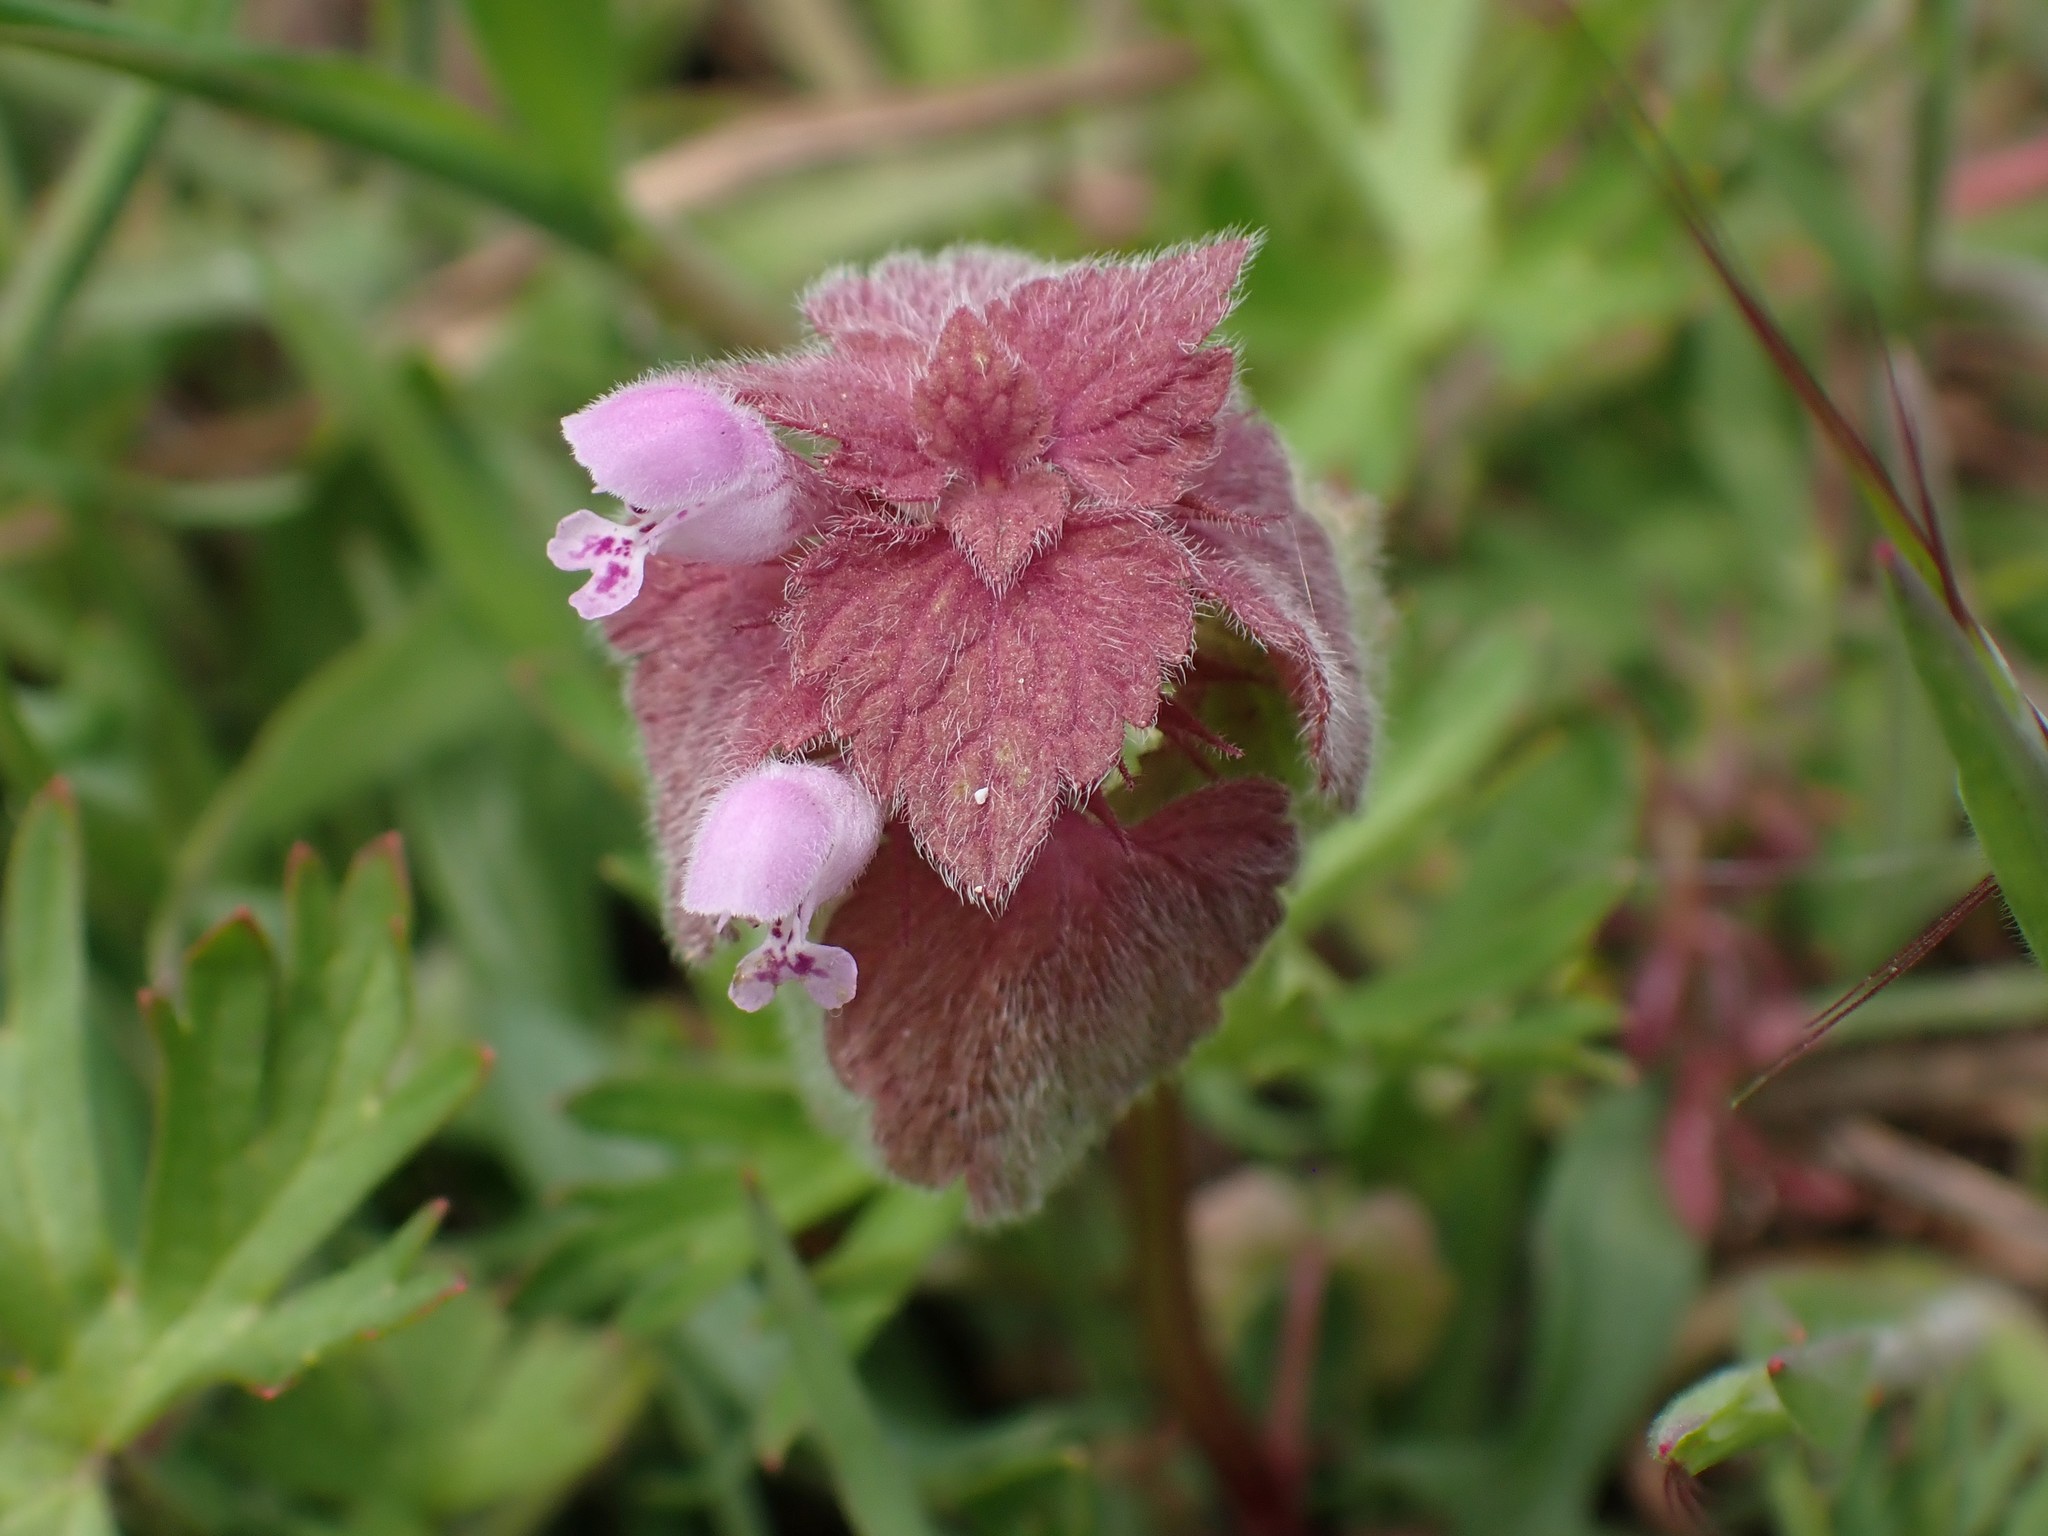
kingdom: Plantae
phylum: Tracheophyta
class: Magnoliopsida
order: Lamiales
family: Lamiaceae
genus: Lamium
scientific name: Lamium purpureum
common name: Red dead-nettle
